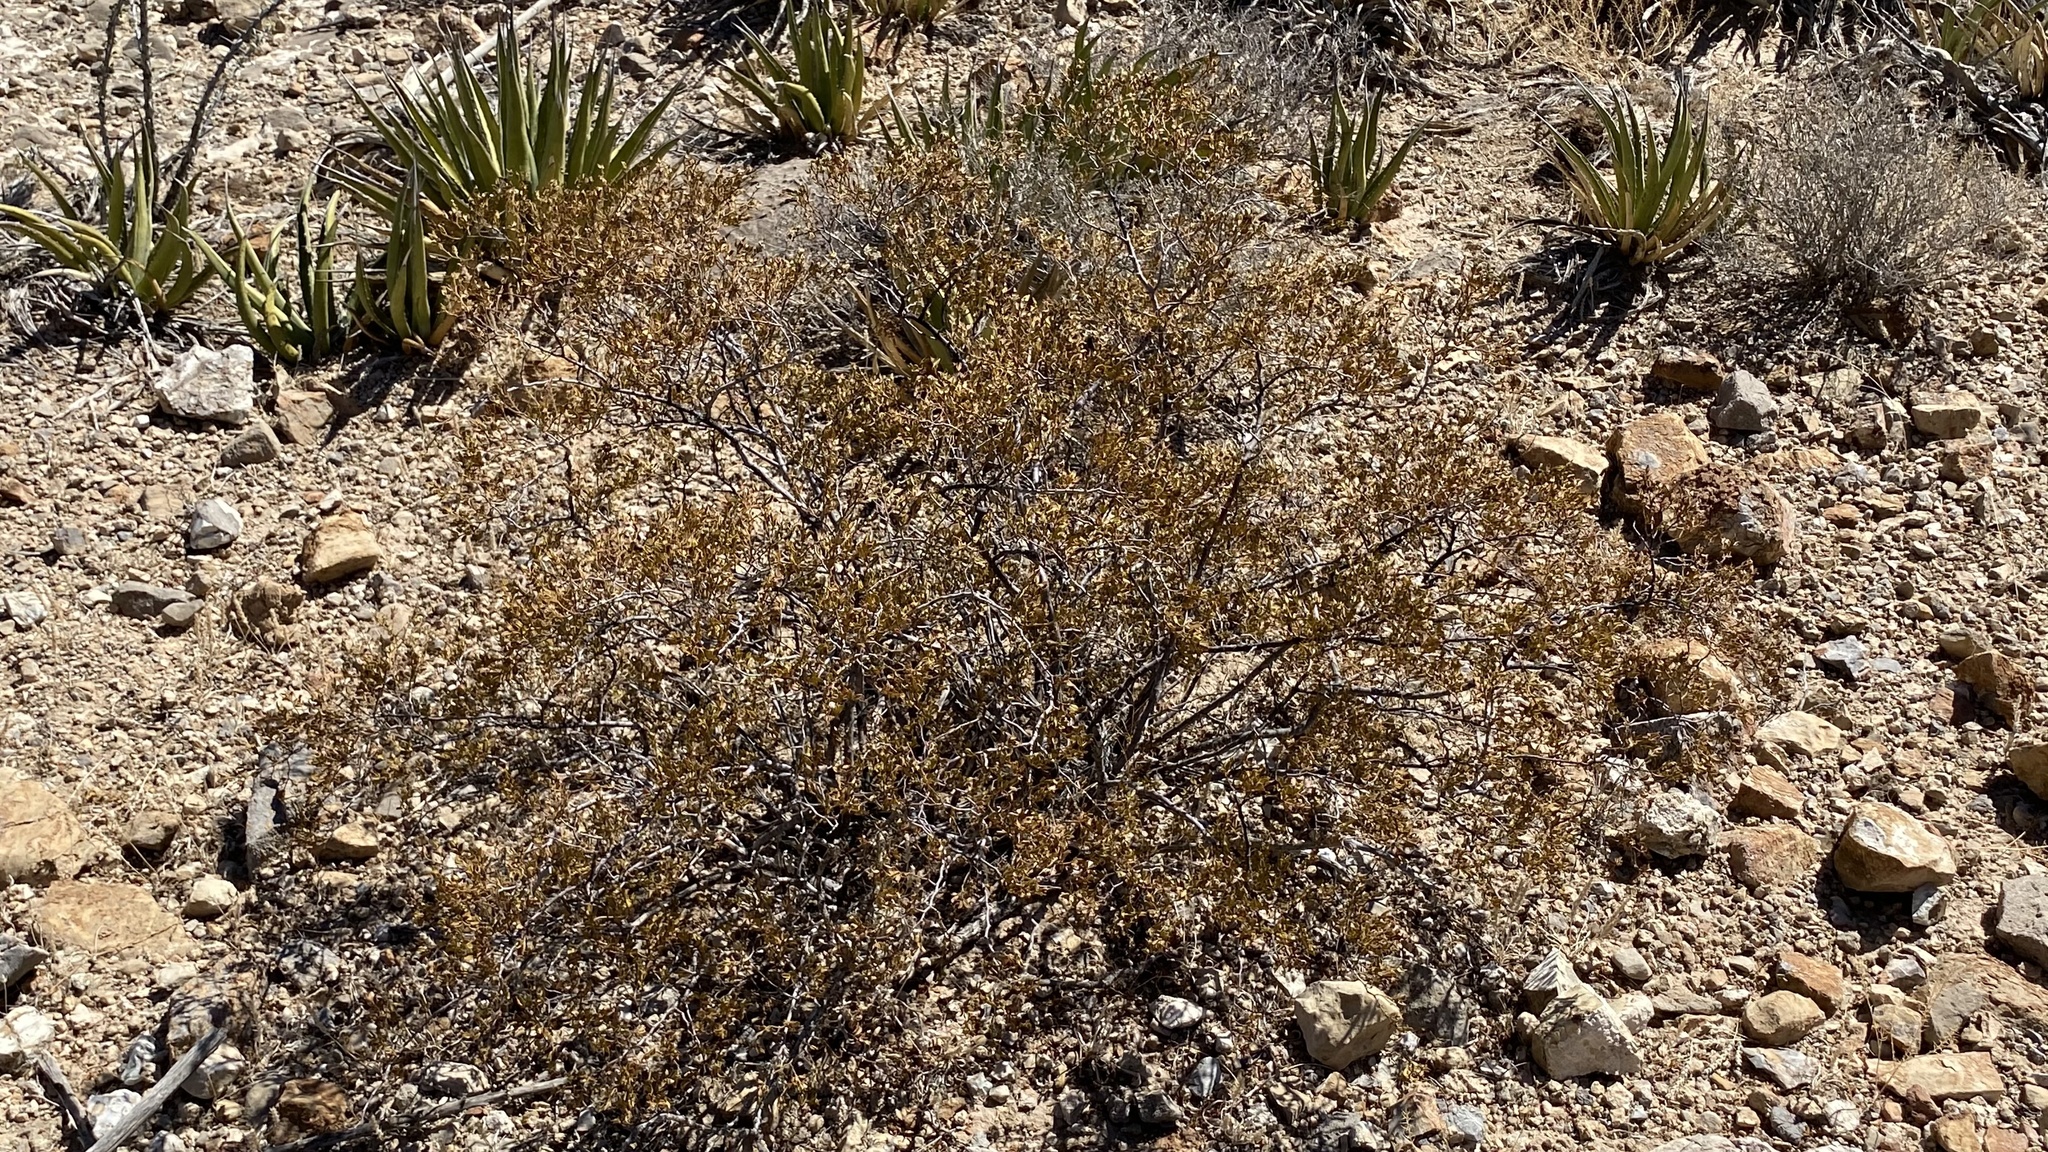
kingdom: Plantae
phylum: Tracheophyta
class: Magnoliopsida
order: Zygophyllales
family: Zygophyllaceae
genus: Larrea
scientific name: Larrea tridentata
